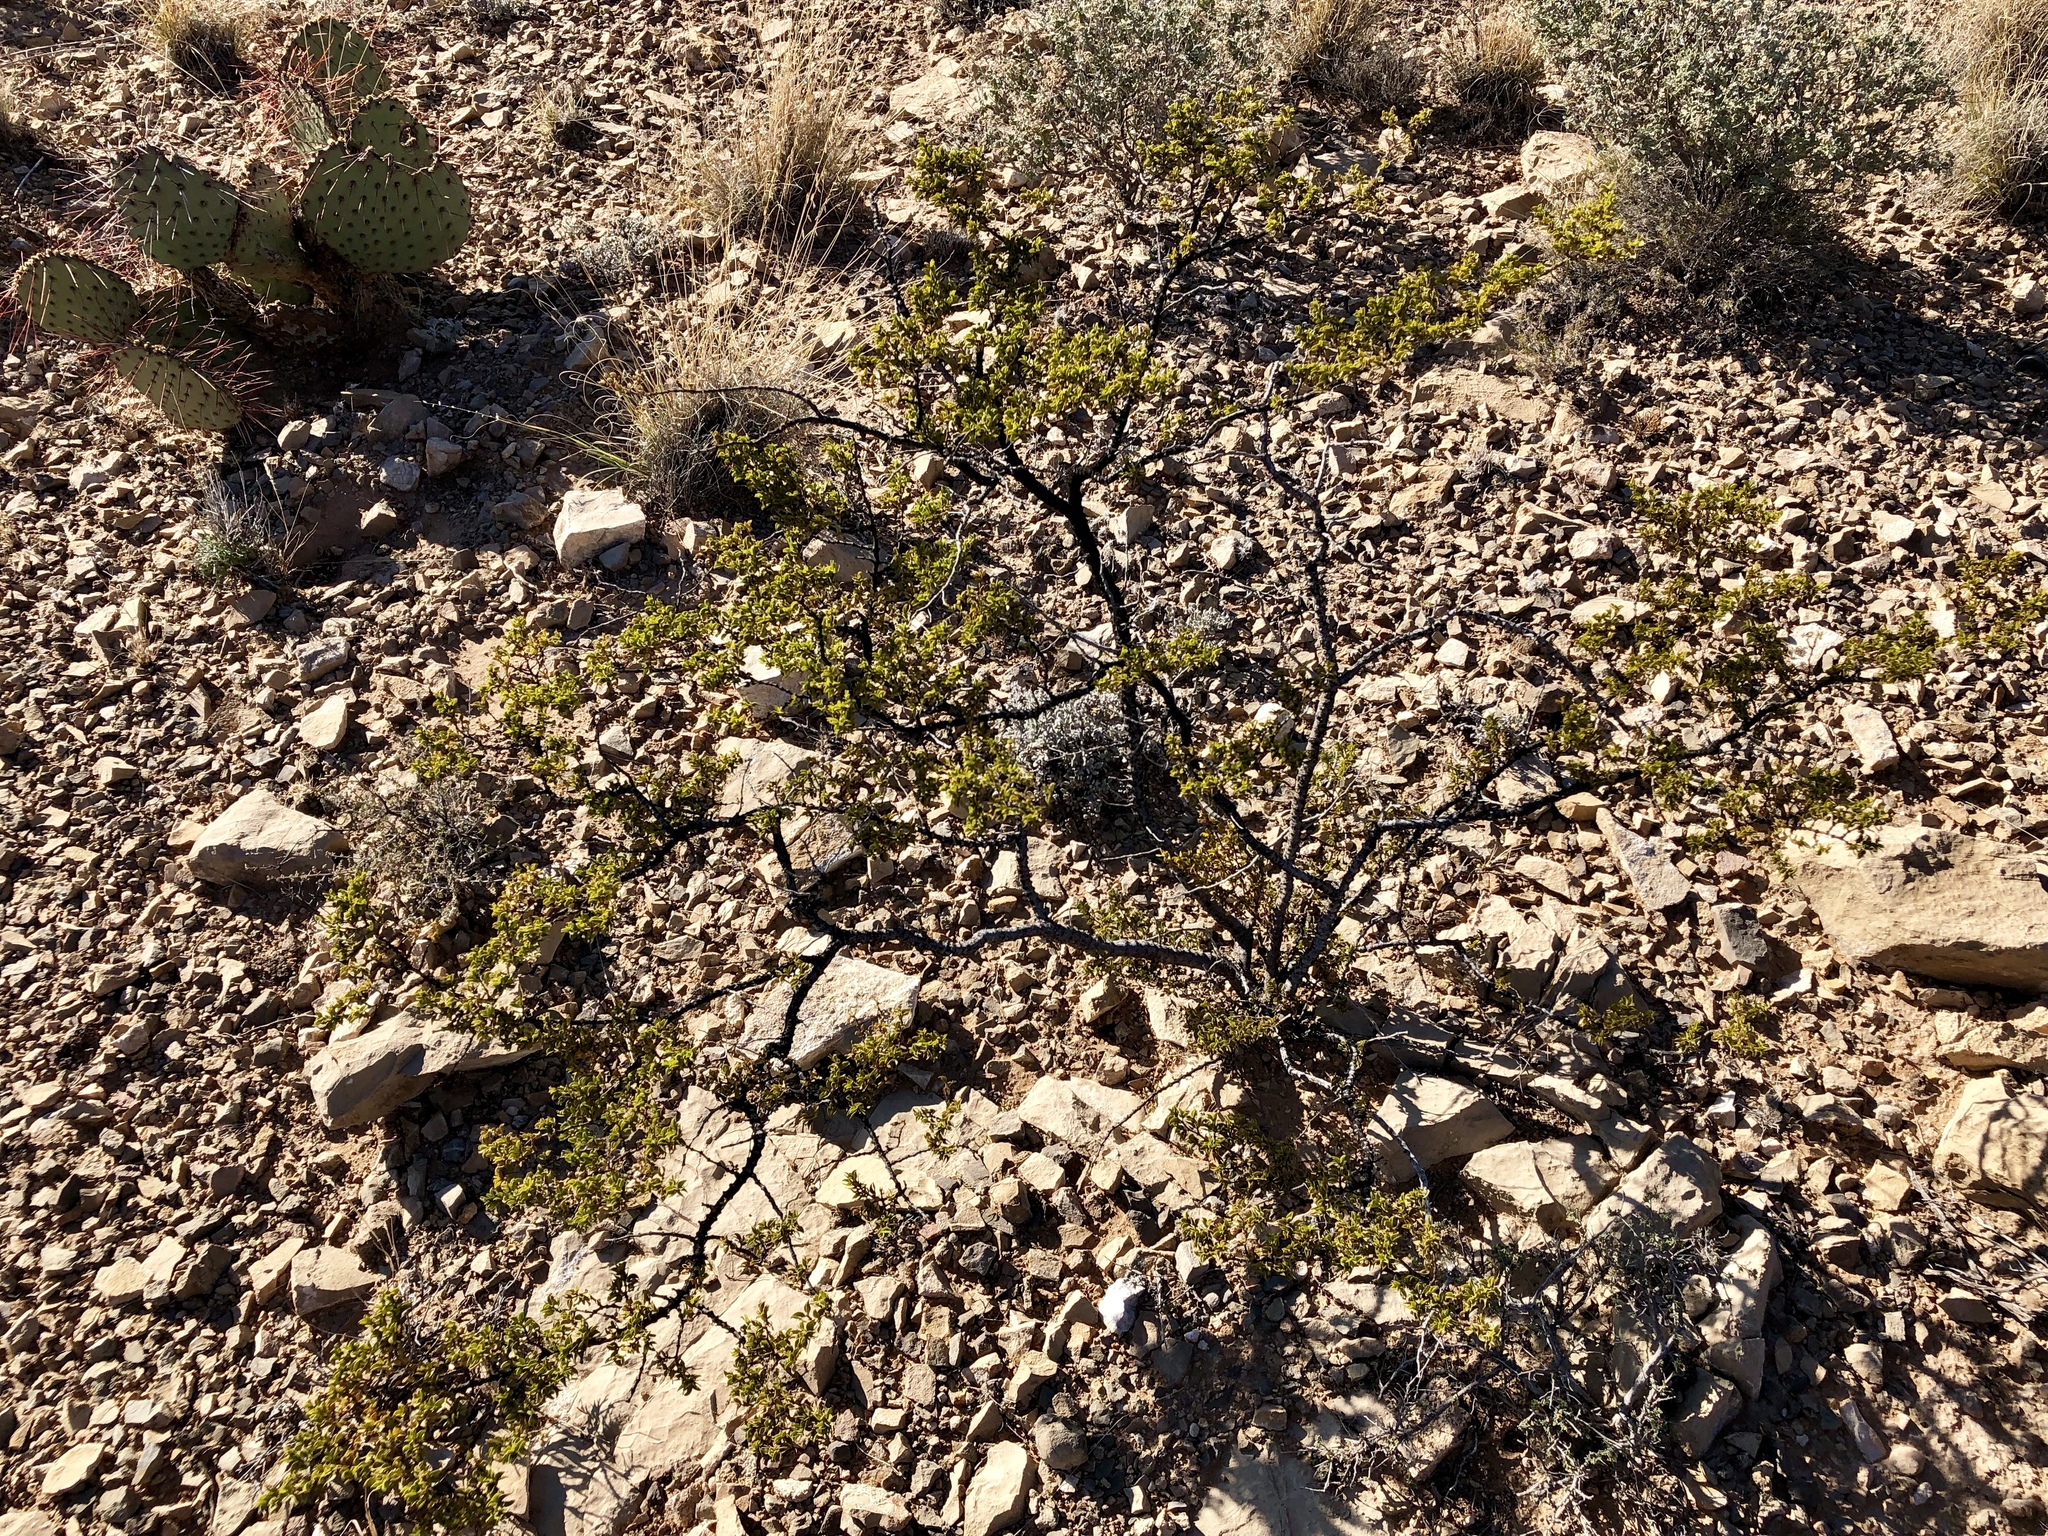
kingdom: Plantae
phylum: Tracheophyta
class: Magnoliopsida
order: Zygophyllales
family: Zygophyllaceae
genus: Larrea
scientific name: Larrea tridentata
